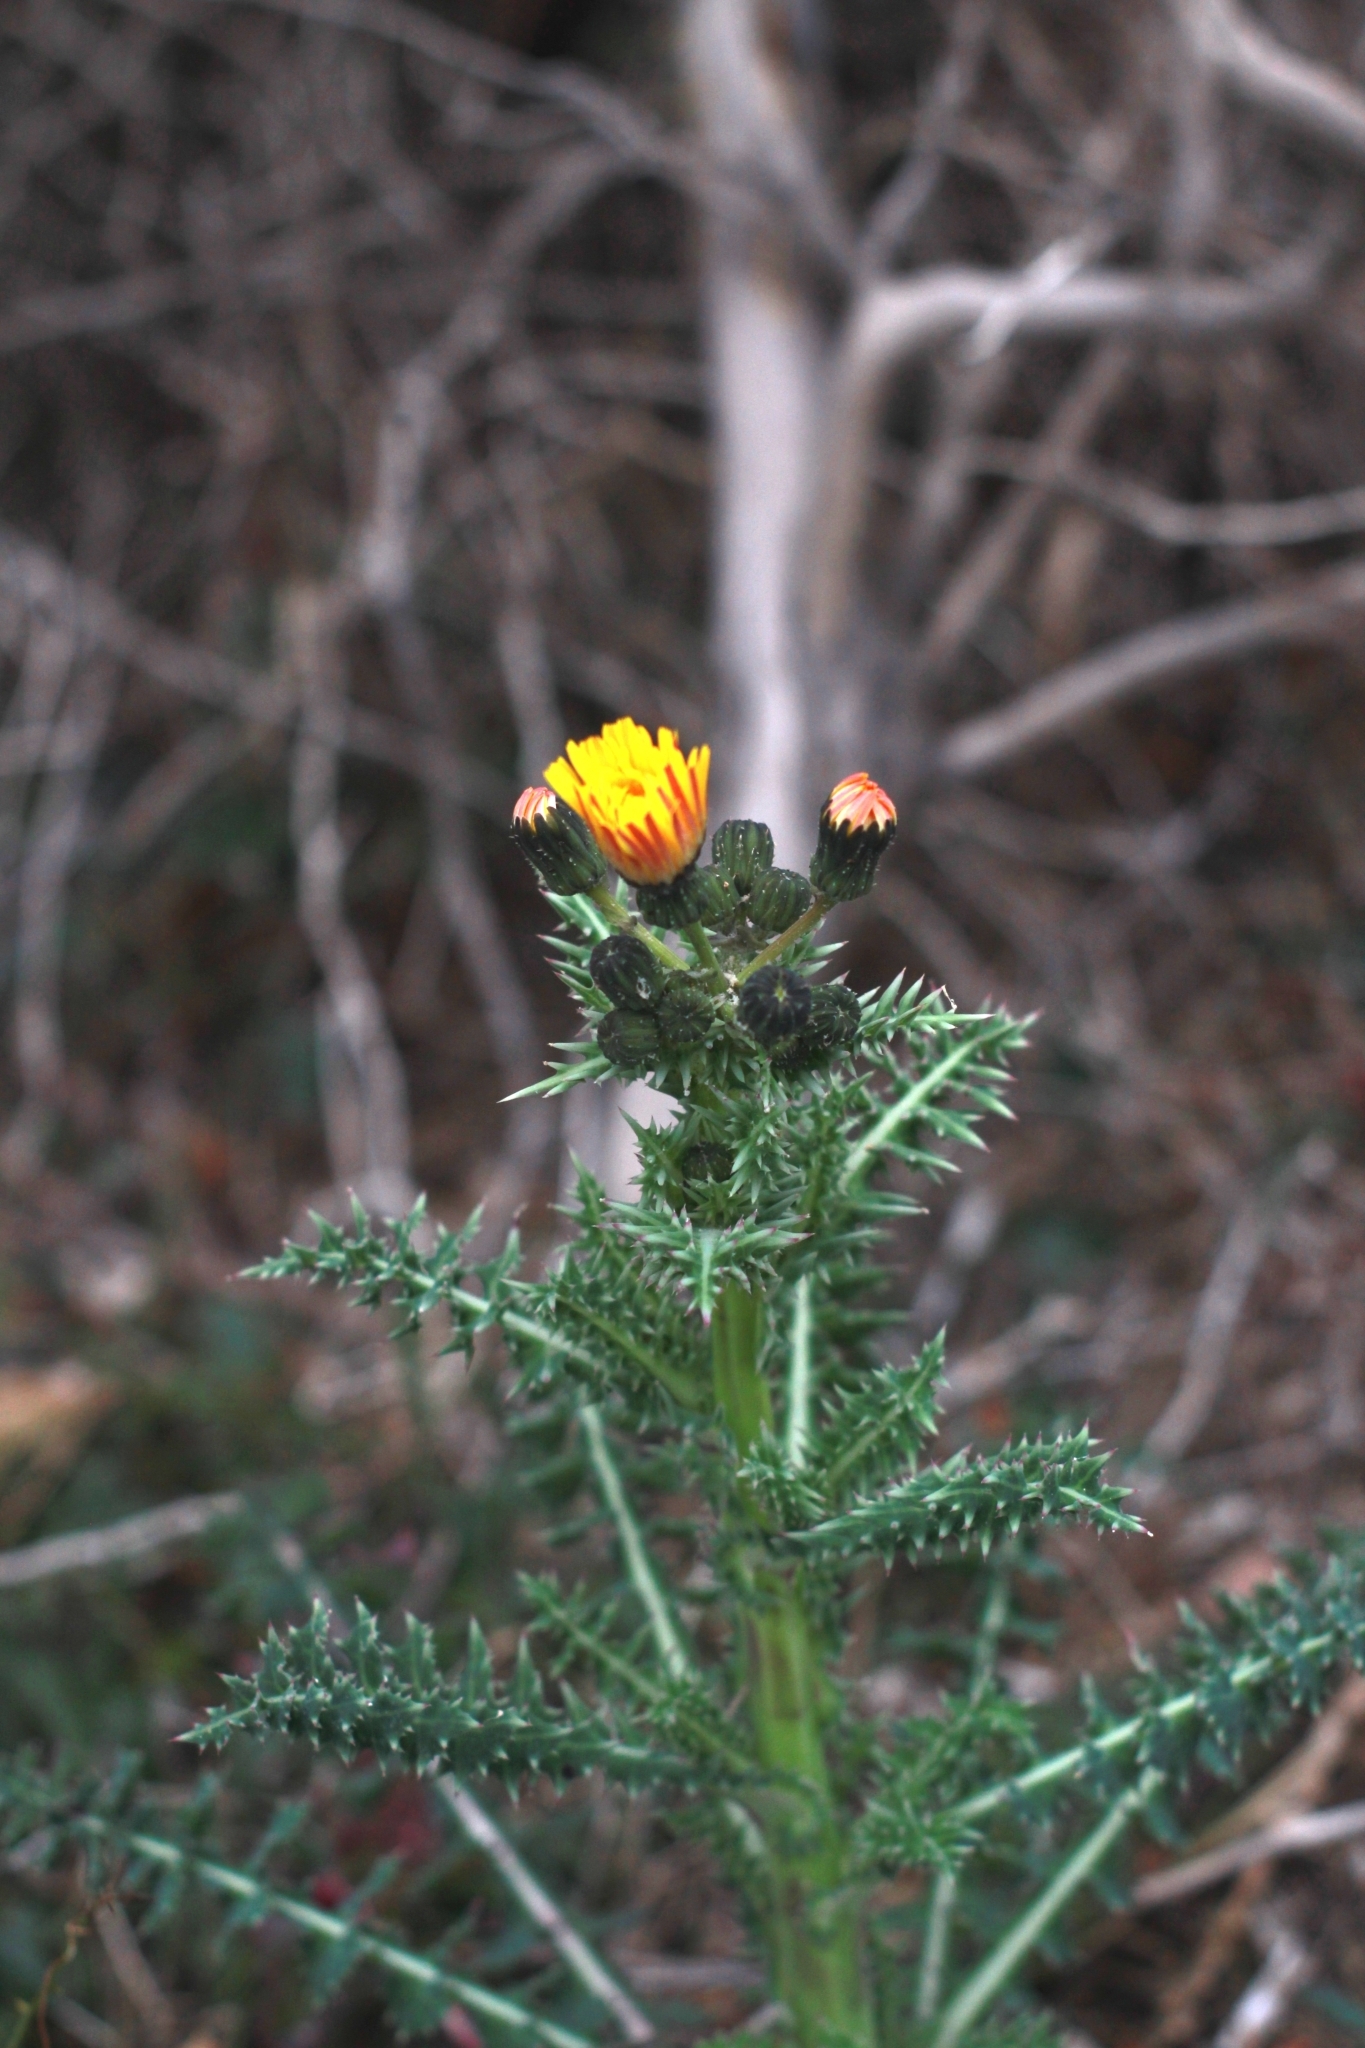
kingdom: Plantae
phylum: Tracheophyta
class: Magnoliopsida
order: Asterales
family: Asteraceae
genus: Sonchus
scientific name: Sonchus asper
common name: Prickly sow-thistle
